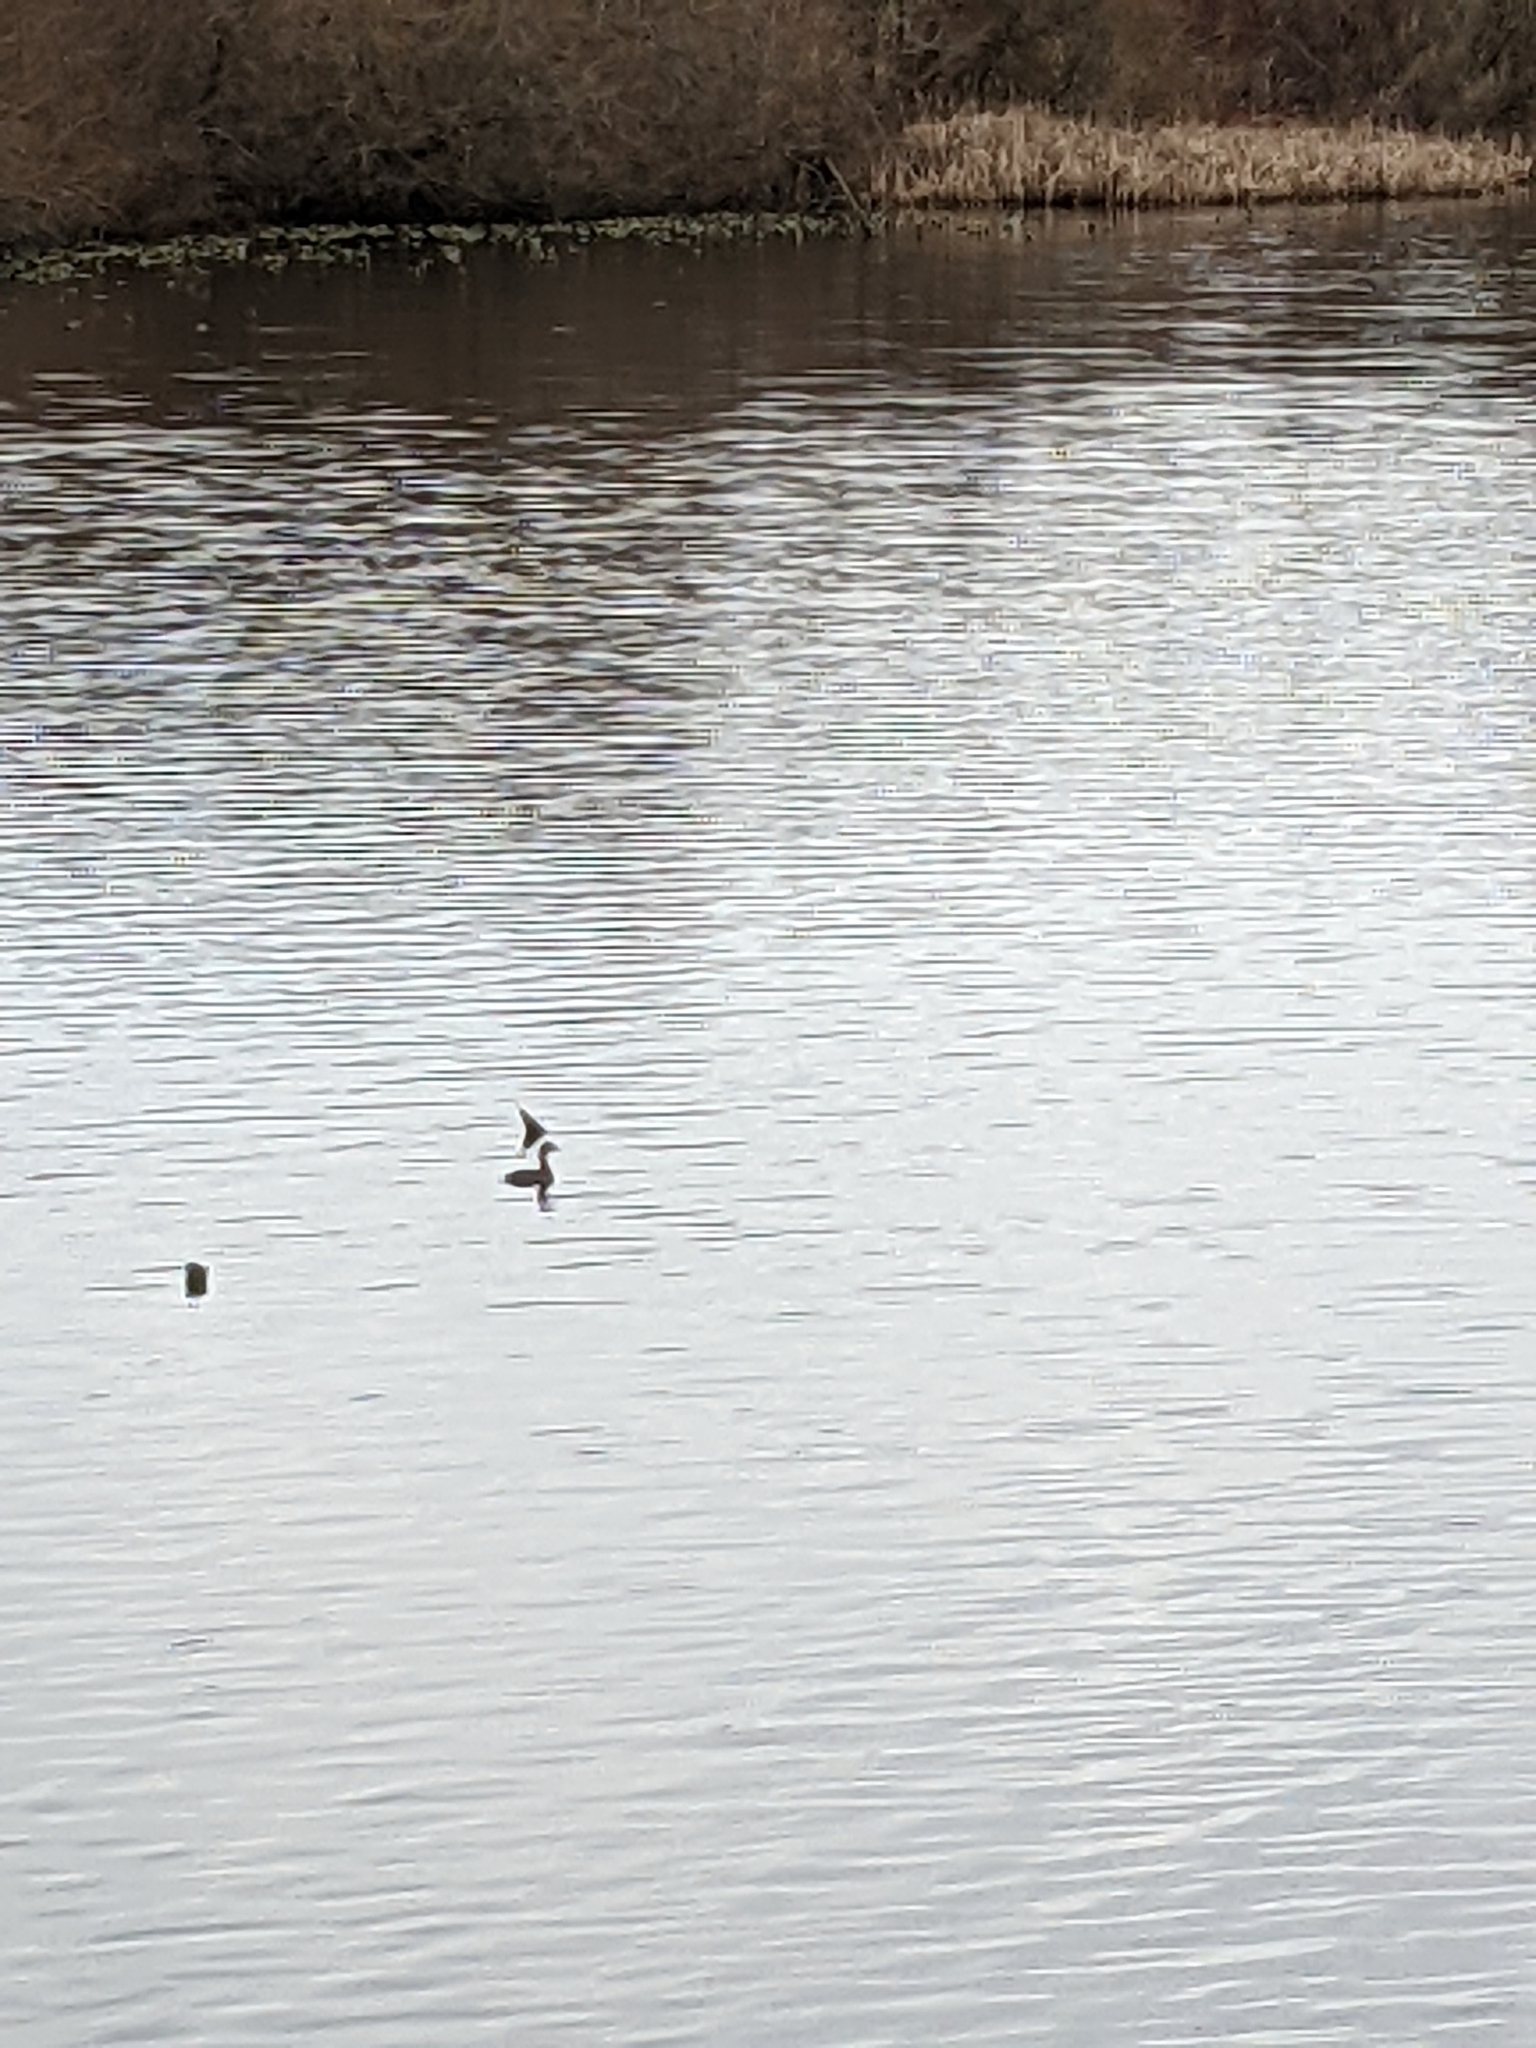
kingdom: Animalia
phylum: Chordata
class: Aves
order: Podicipediformes
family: Podicipedidae
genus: Podilymbus
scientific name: Podilymbus podiceps
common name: Pied-billed grebe
